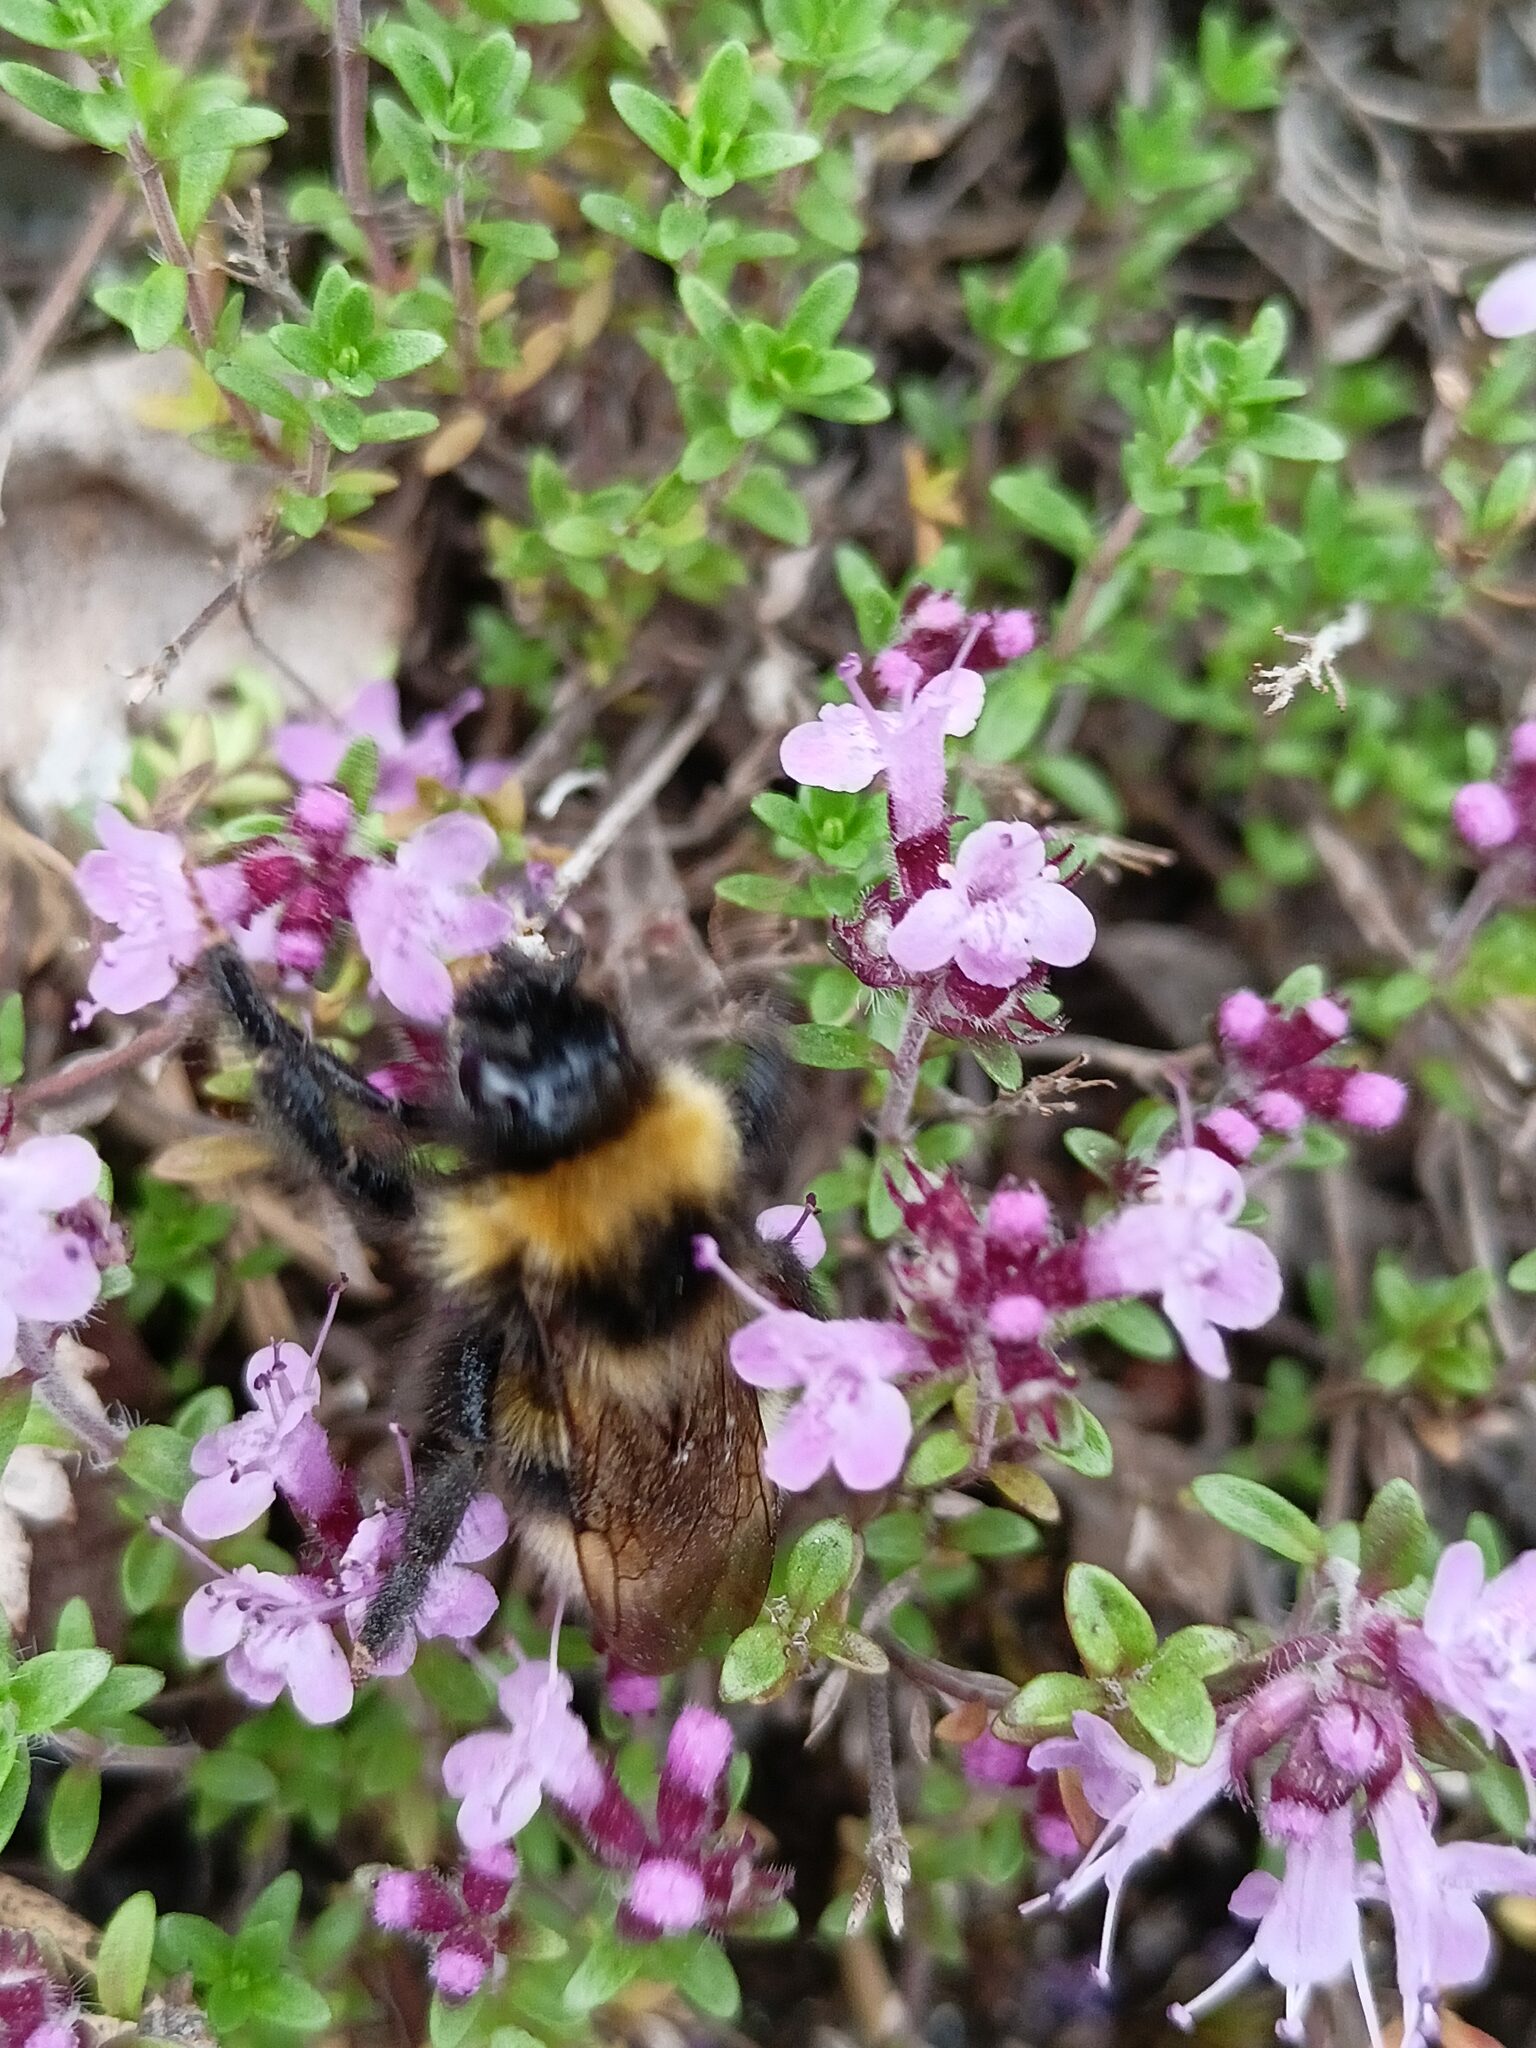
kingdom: Animalia
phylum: Arthropoda
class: Insecta
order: Hymenoptera
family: Apidae
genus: Bombus
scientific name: Bombus bohemicus
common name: Gypsy cuckoo bee
